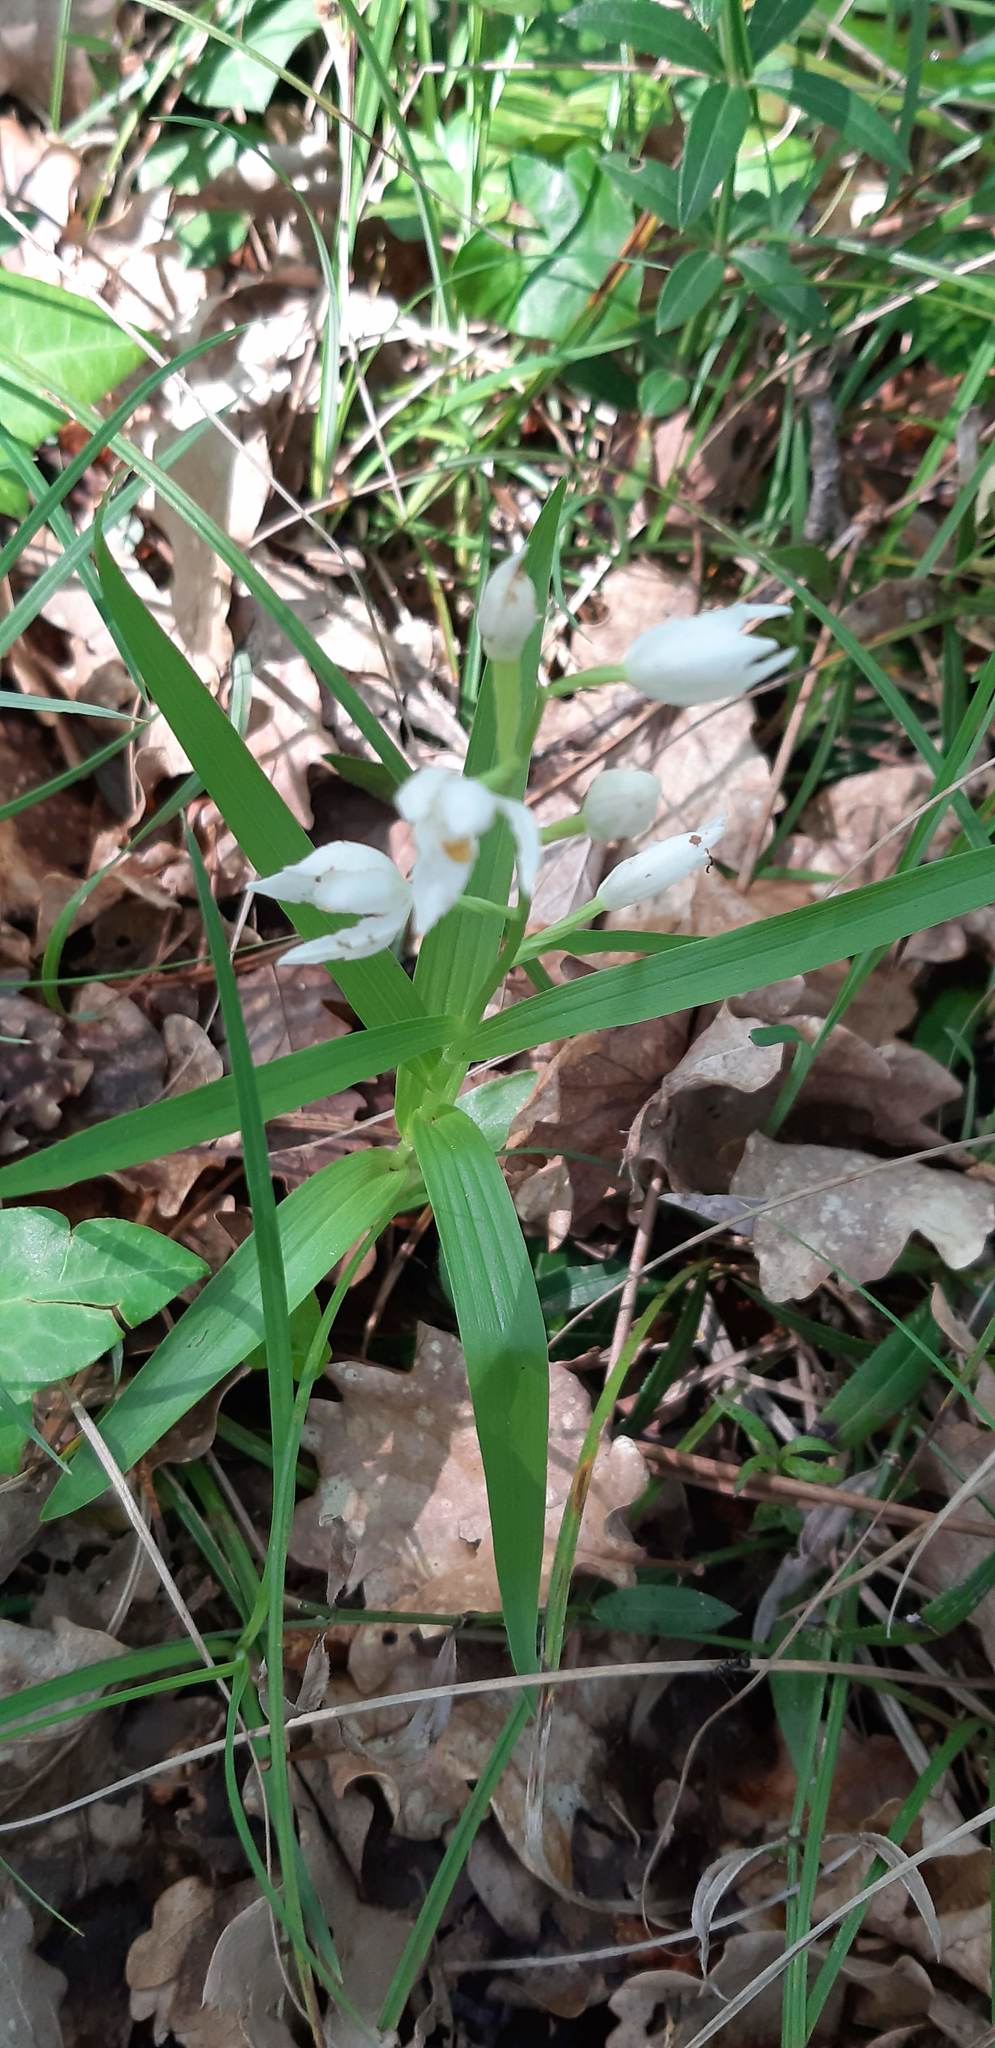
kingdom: Plantae
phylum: Tracheophyta
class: Liliopsida
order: Asparagales
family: Orchidaceae
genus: Cephalanthera
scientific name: Cephalanthera longifolia
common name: Narrow-leaved helleborine
